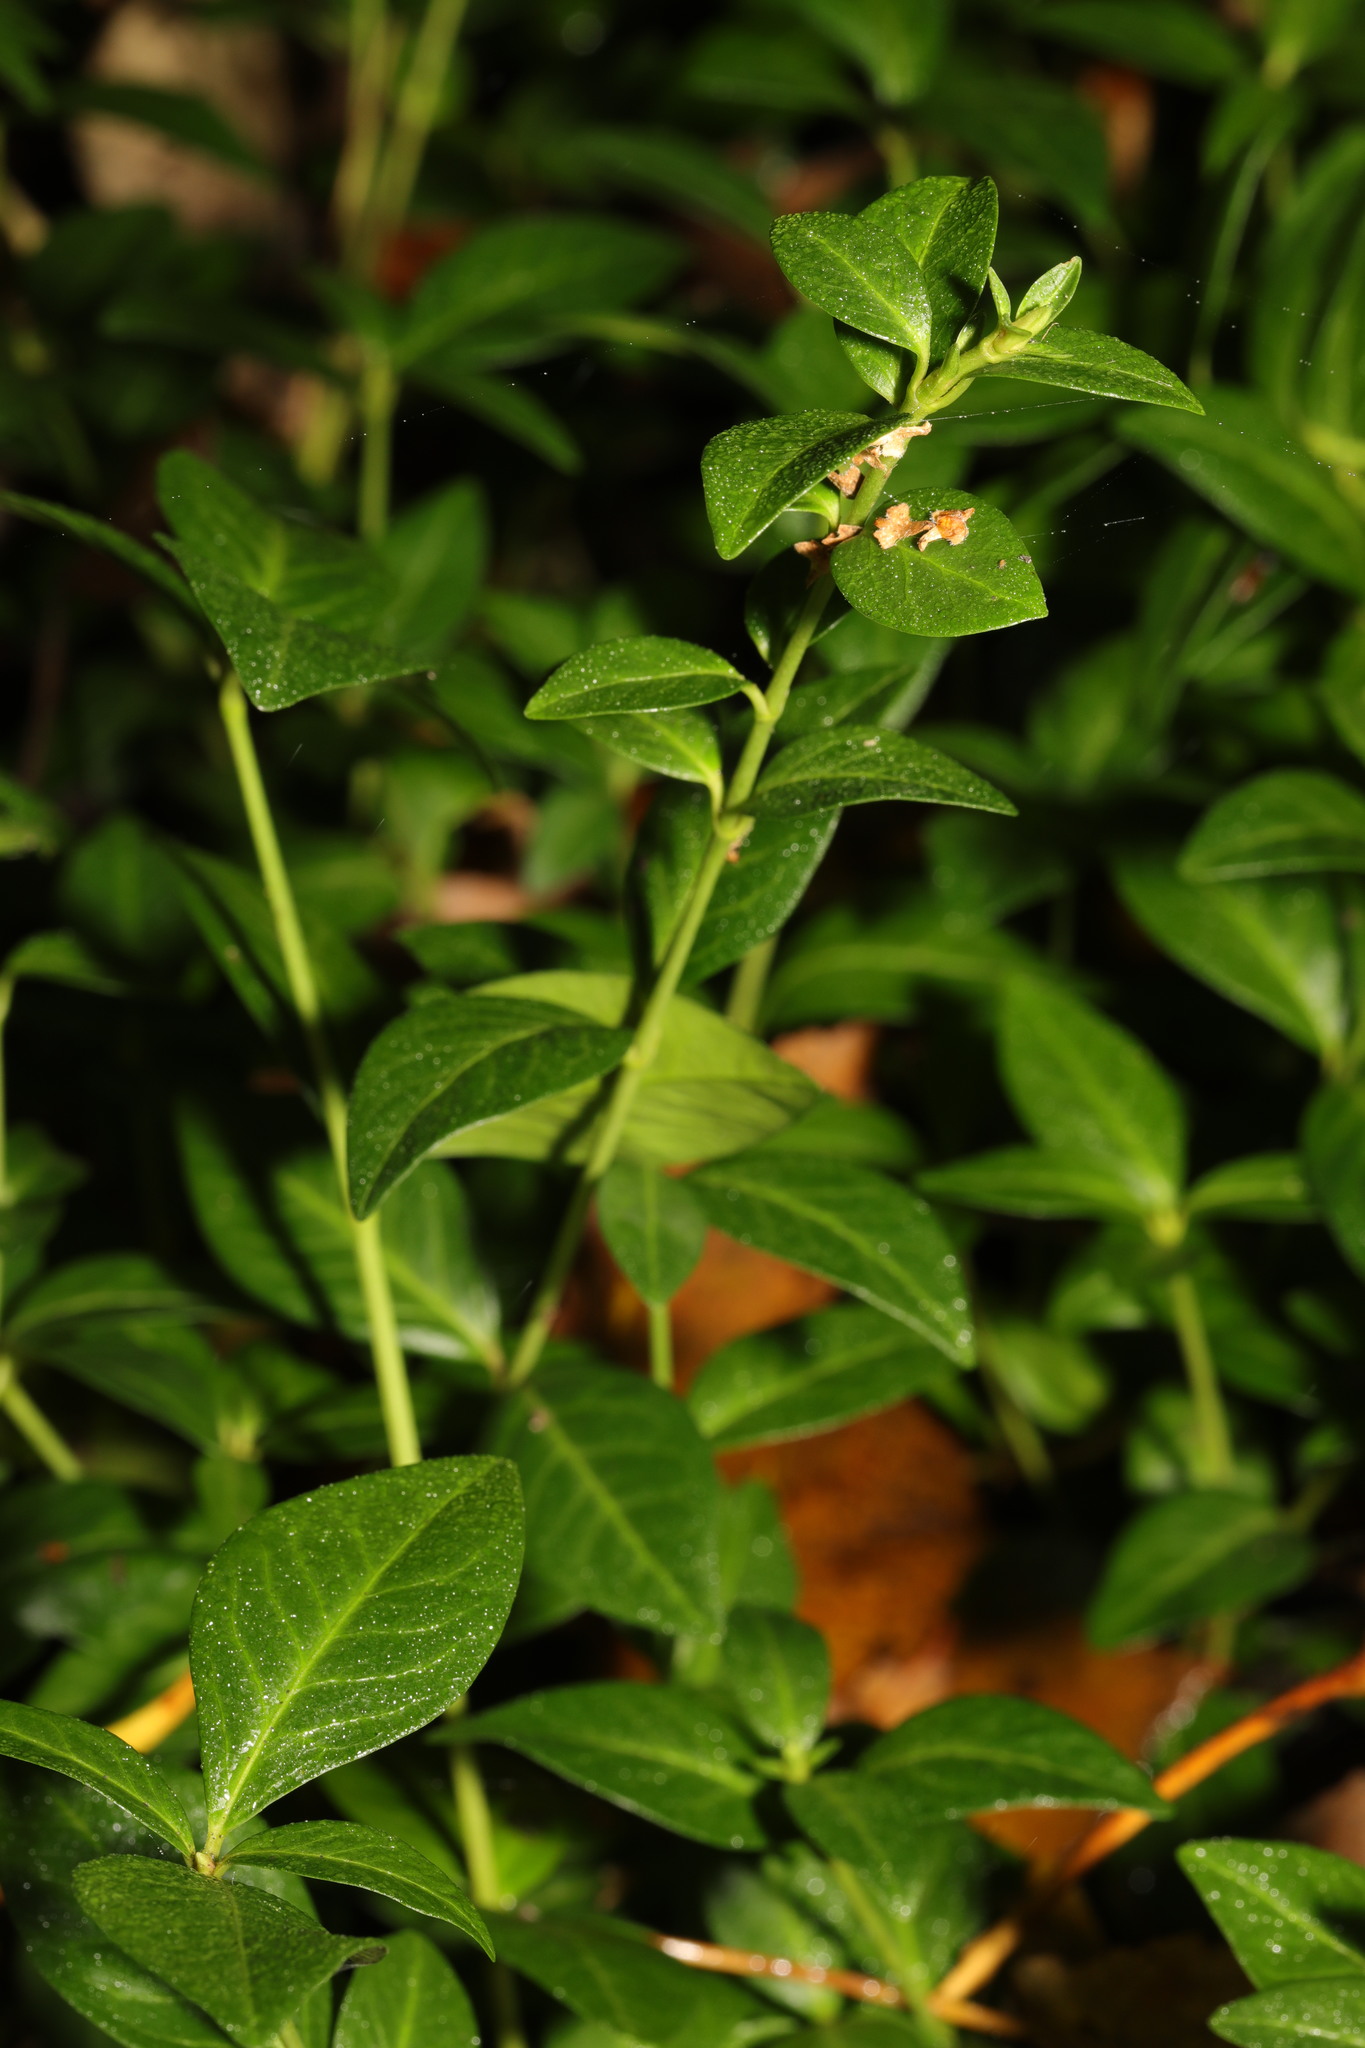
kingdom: Plantae
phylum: Tracheophyta
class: Magnoliopsida
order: Gentianales
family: Apocynaceae
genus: Vinca
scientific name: Vinca minor
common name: Lesser periwinkle
